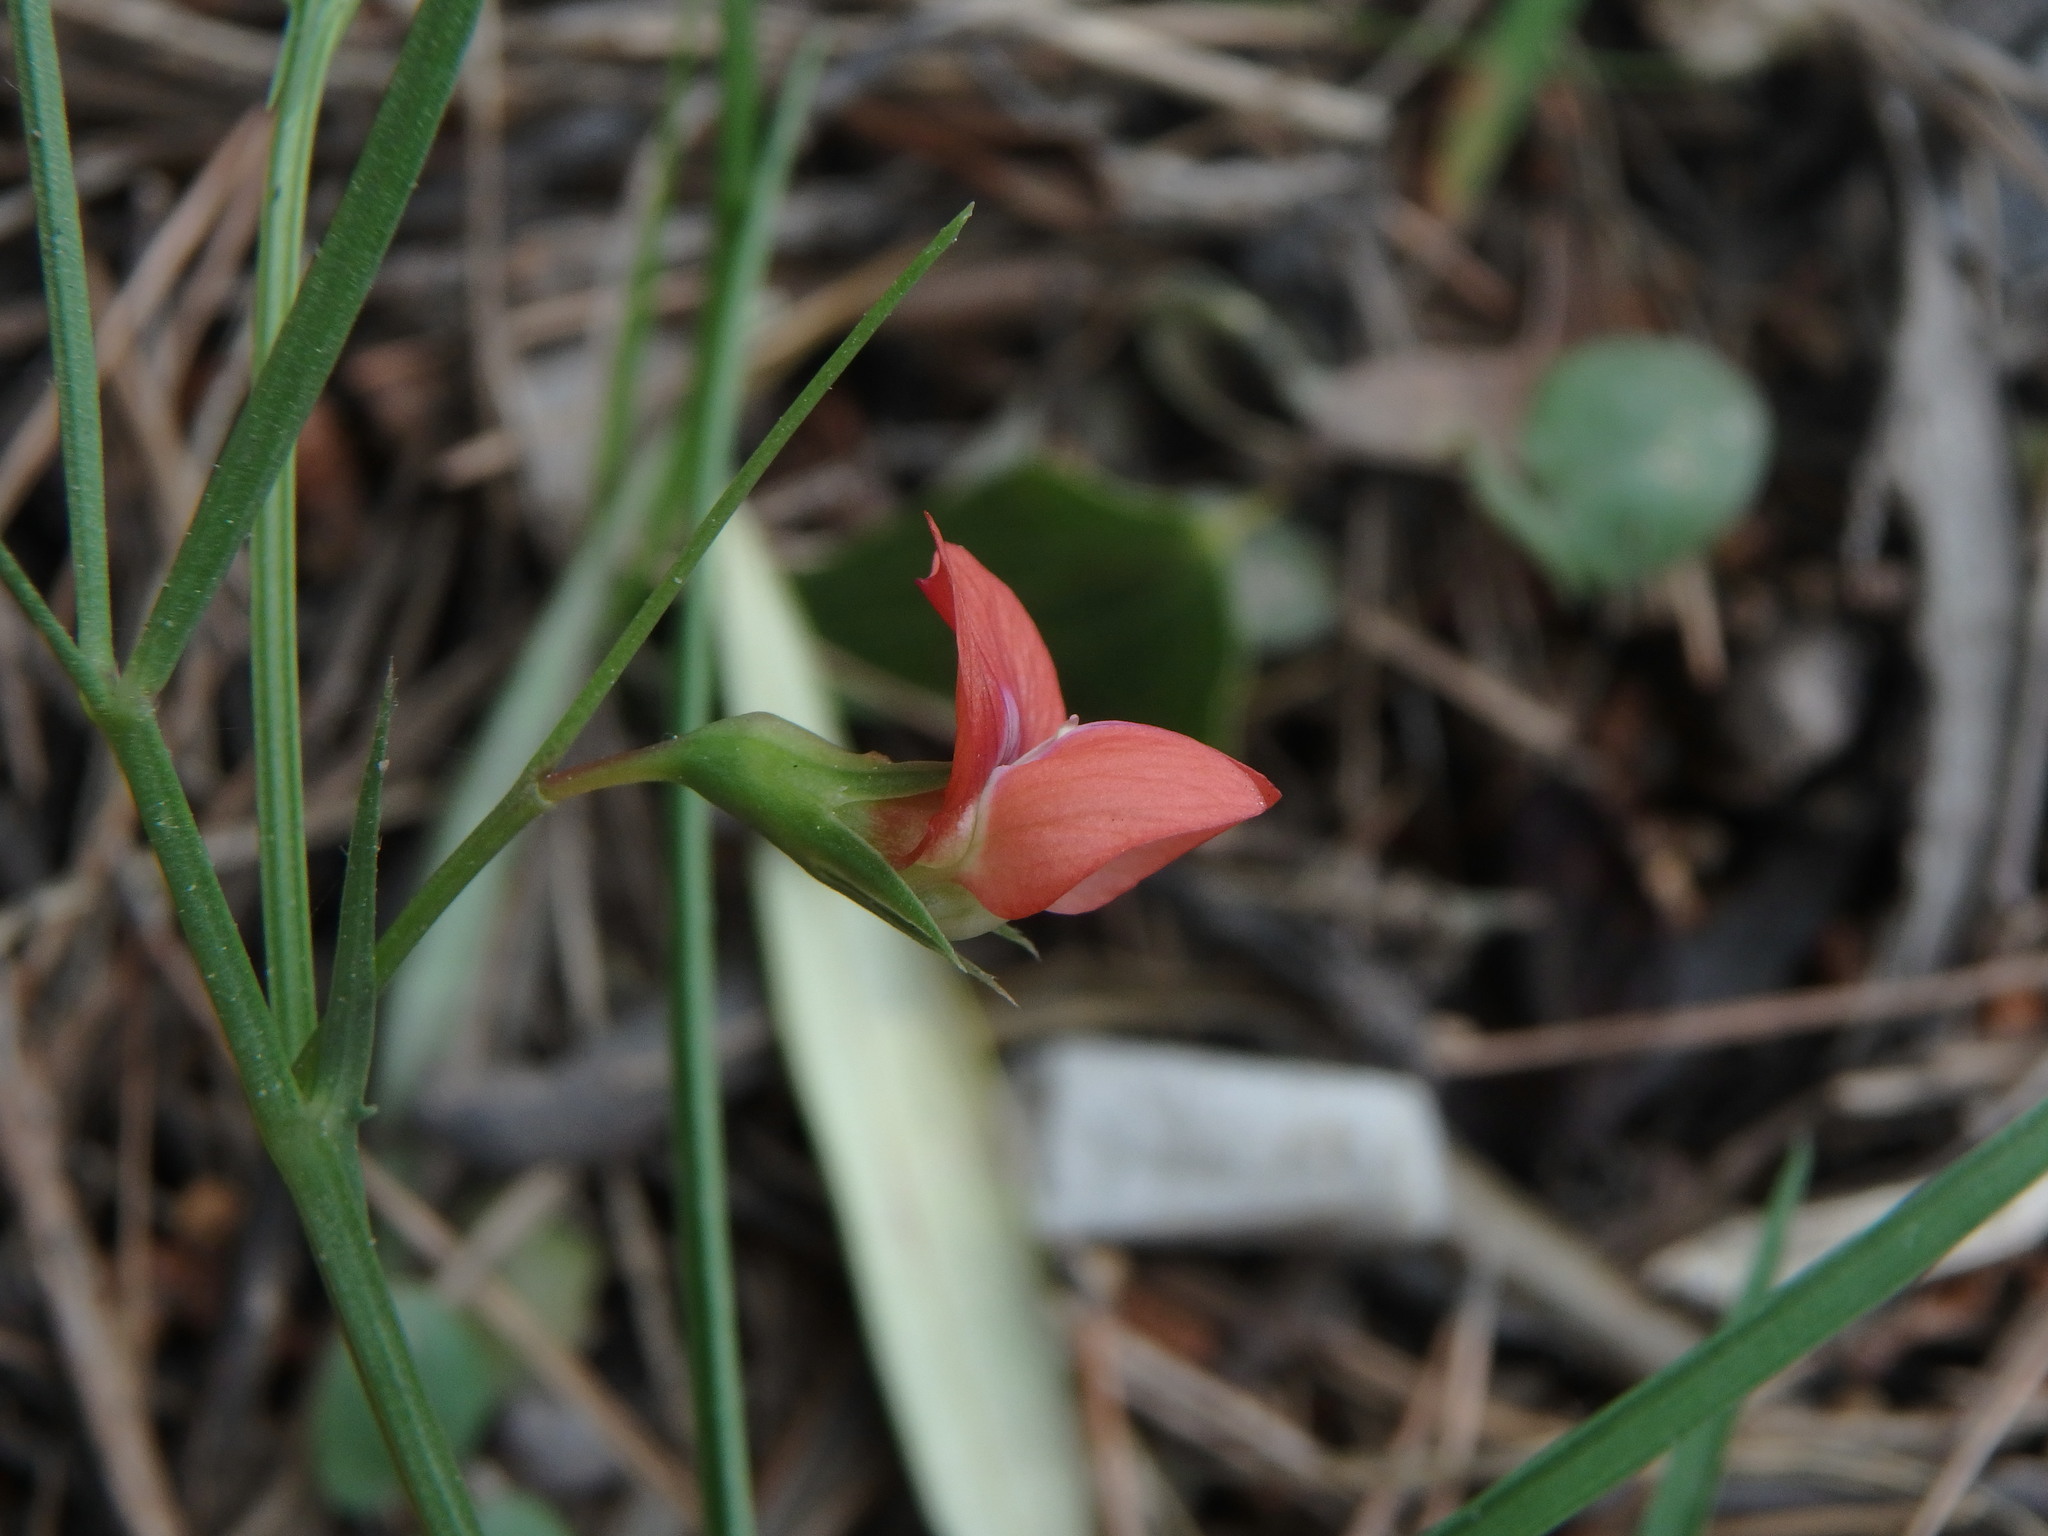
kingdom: Plantae
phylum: Tracheophyta
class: Magnoliopsida
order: Fabales
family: Fabaceae
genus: Lathyrus
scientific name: Lathyrus sphaericus
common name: Grass pea
